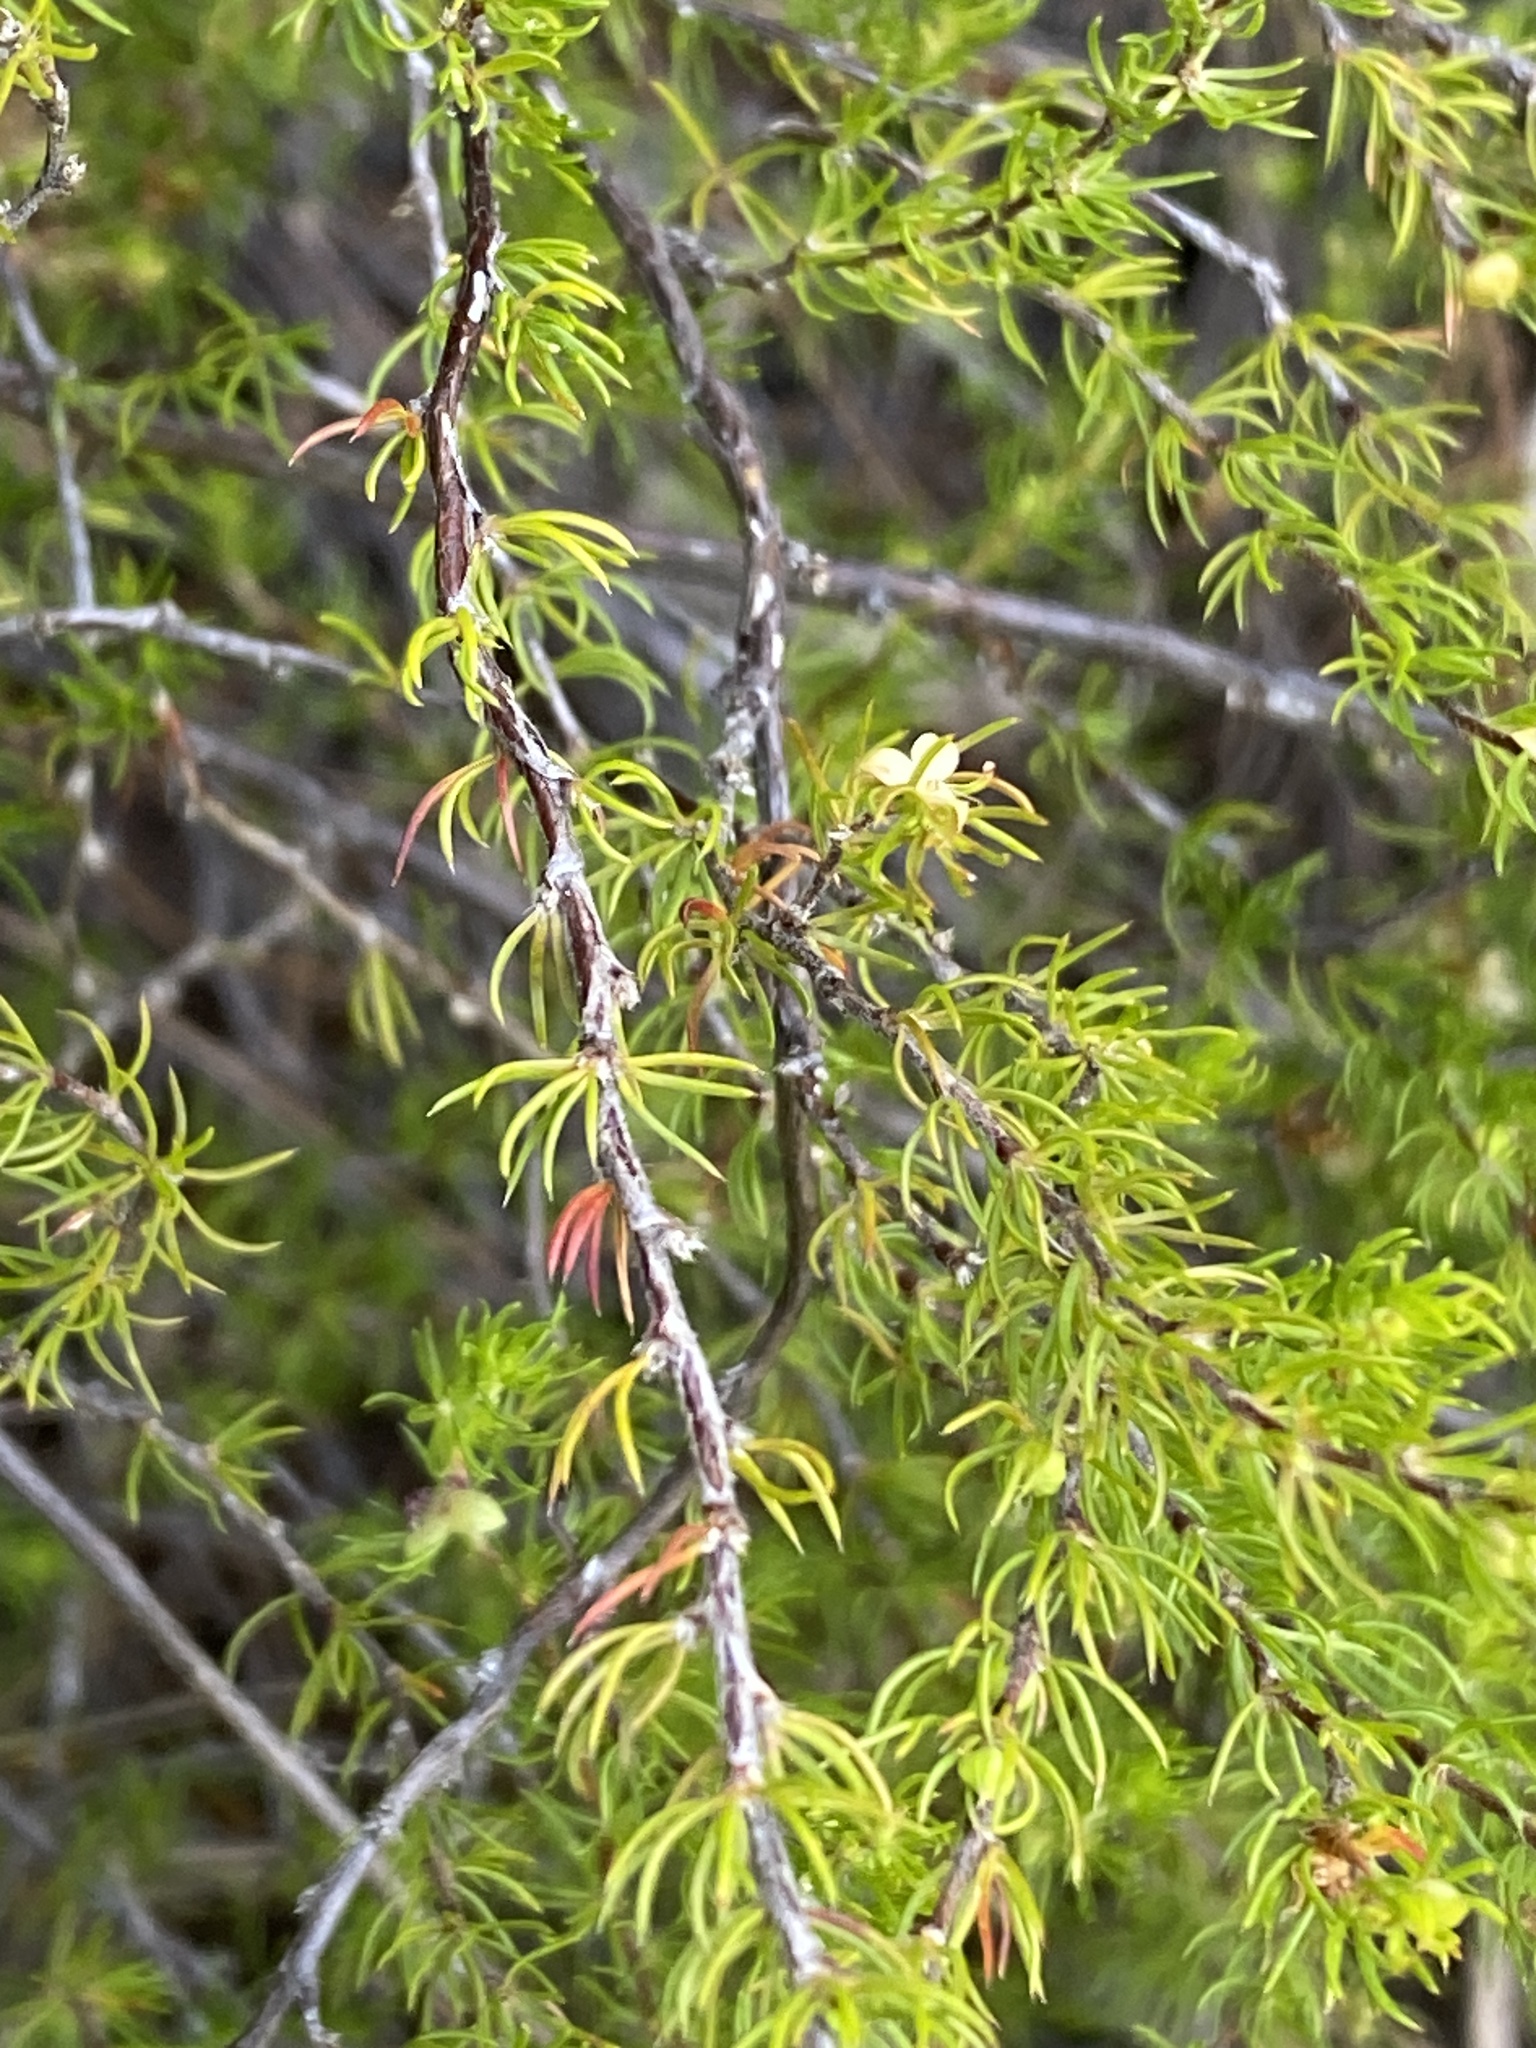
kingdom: Plantae
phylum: Tracheophyta
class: Magnoliopsida
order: Rosales
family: Rosaceae
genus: Cliffortia
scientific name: Cliffortia atrata
